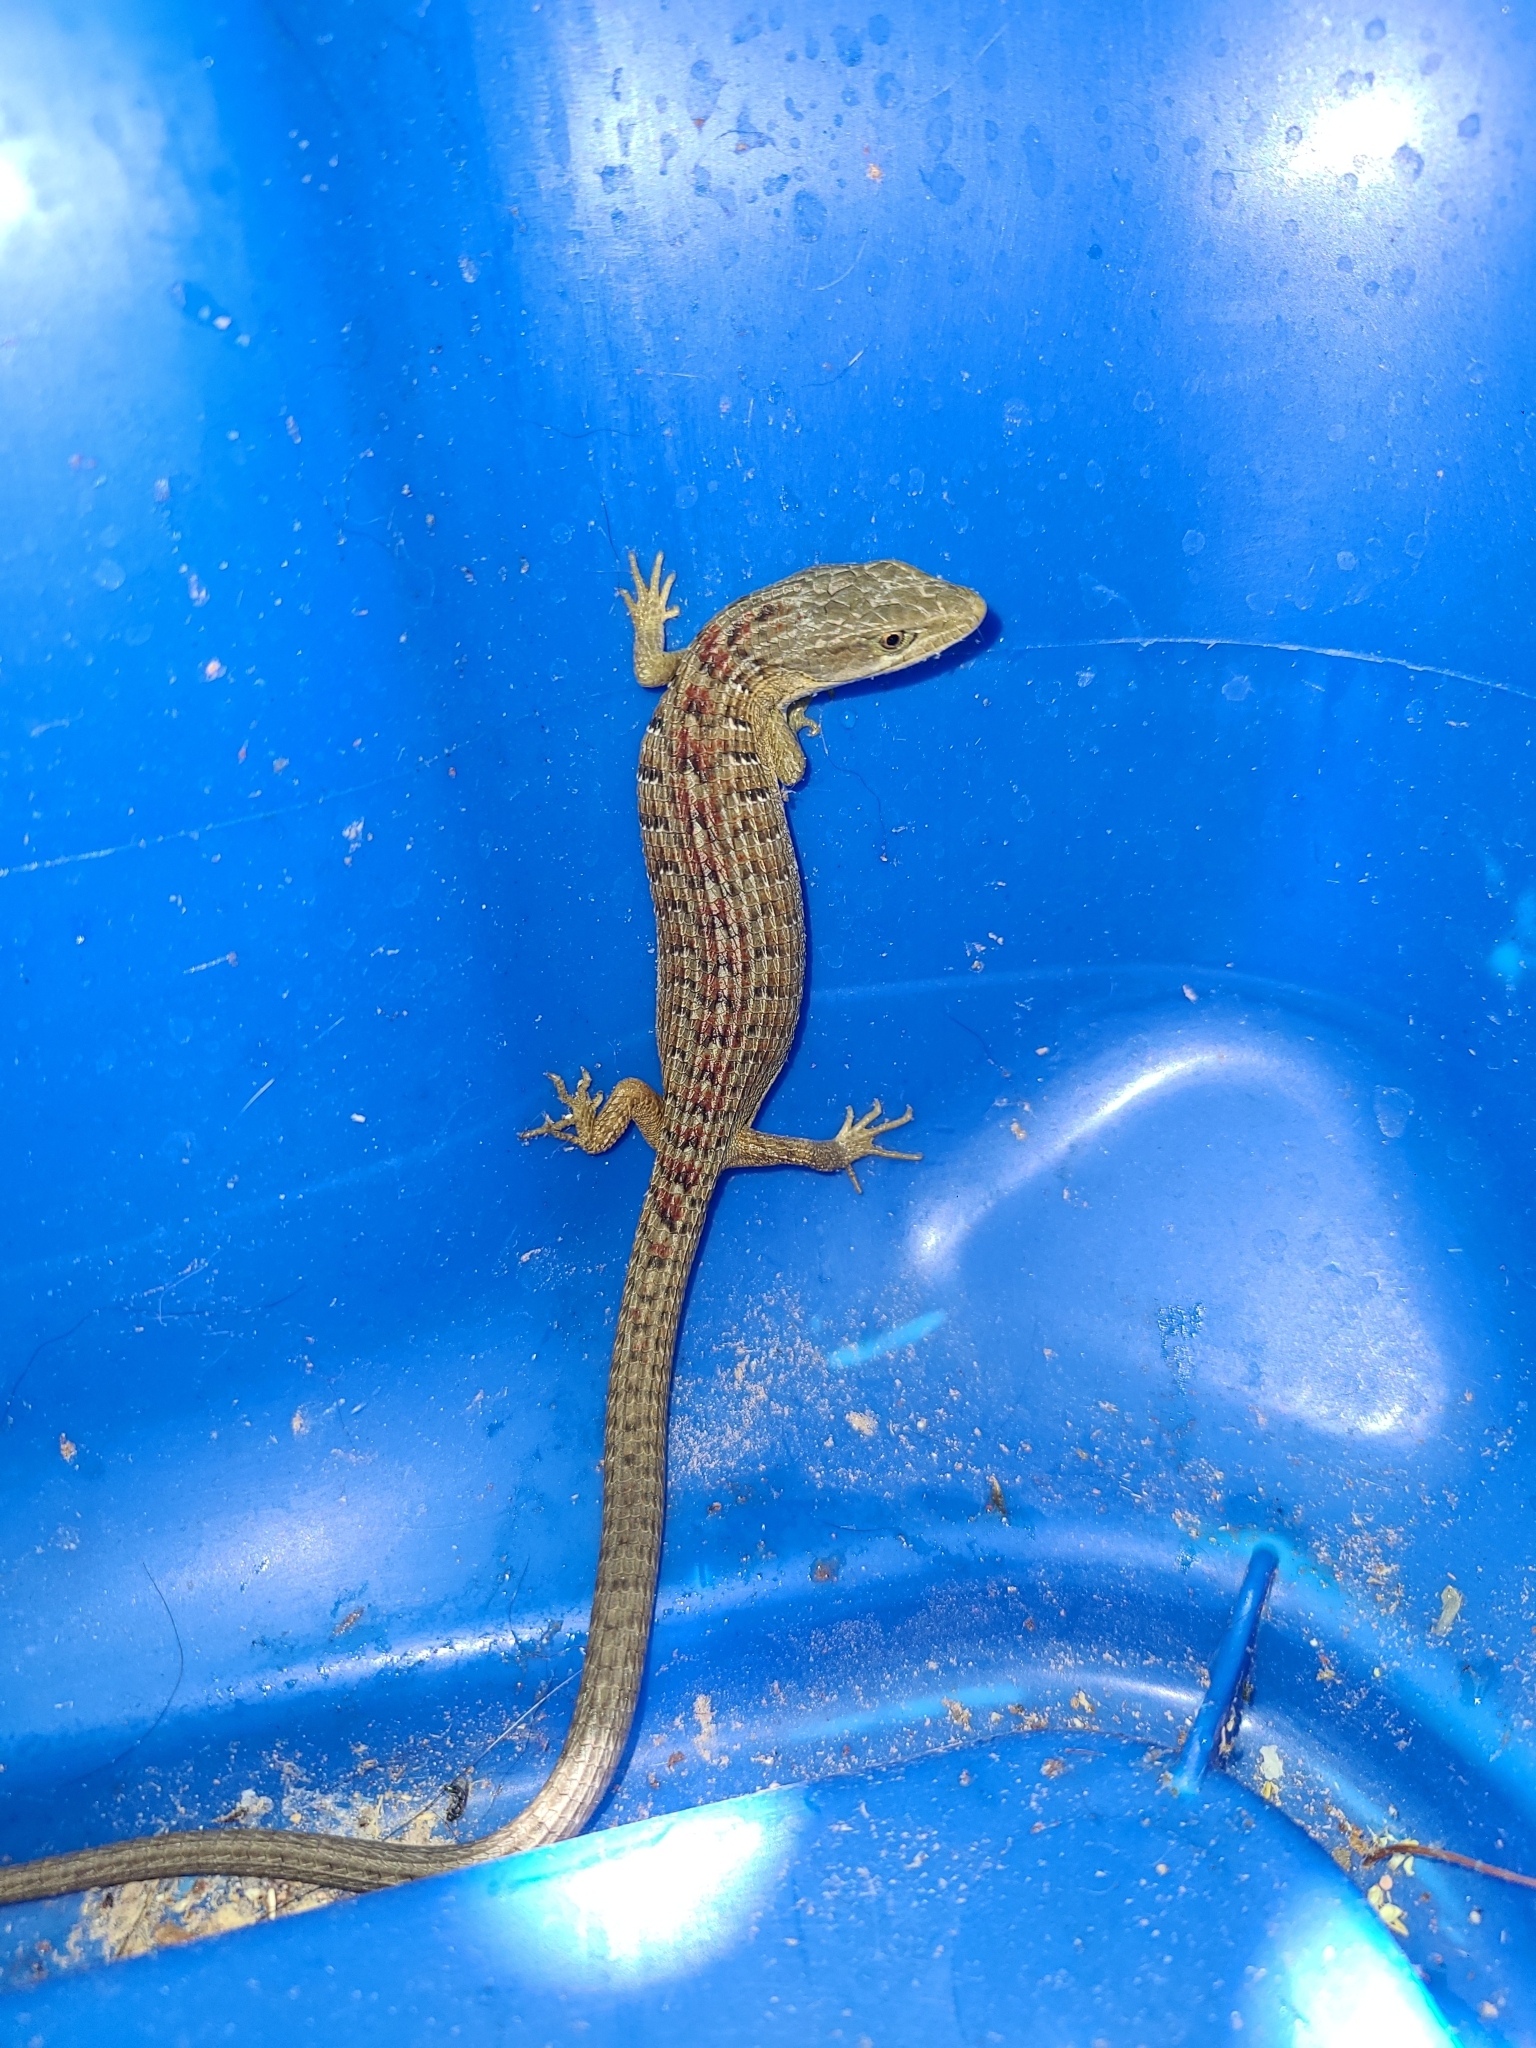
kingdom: Animalia
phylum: Chordata
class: Squamata
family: Anguidae
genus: Elgaria
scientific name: Elgaria multicarinata
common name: Southern alligator lizard
